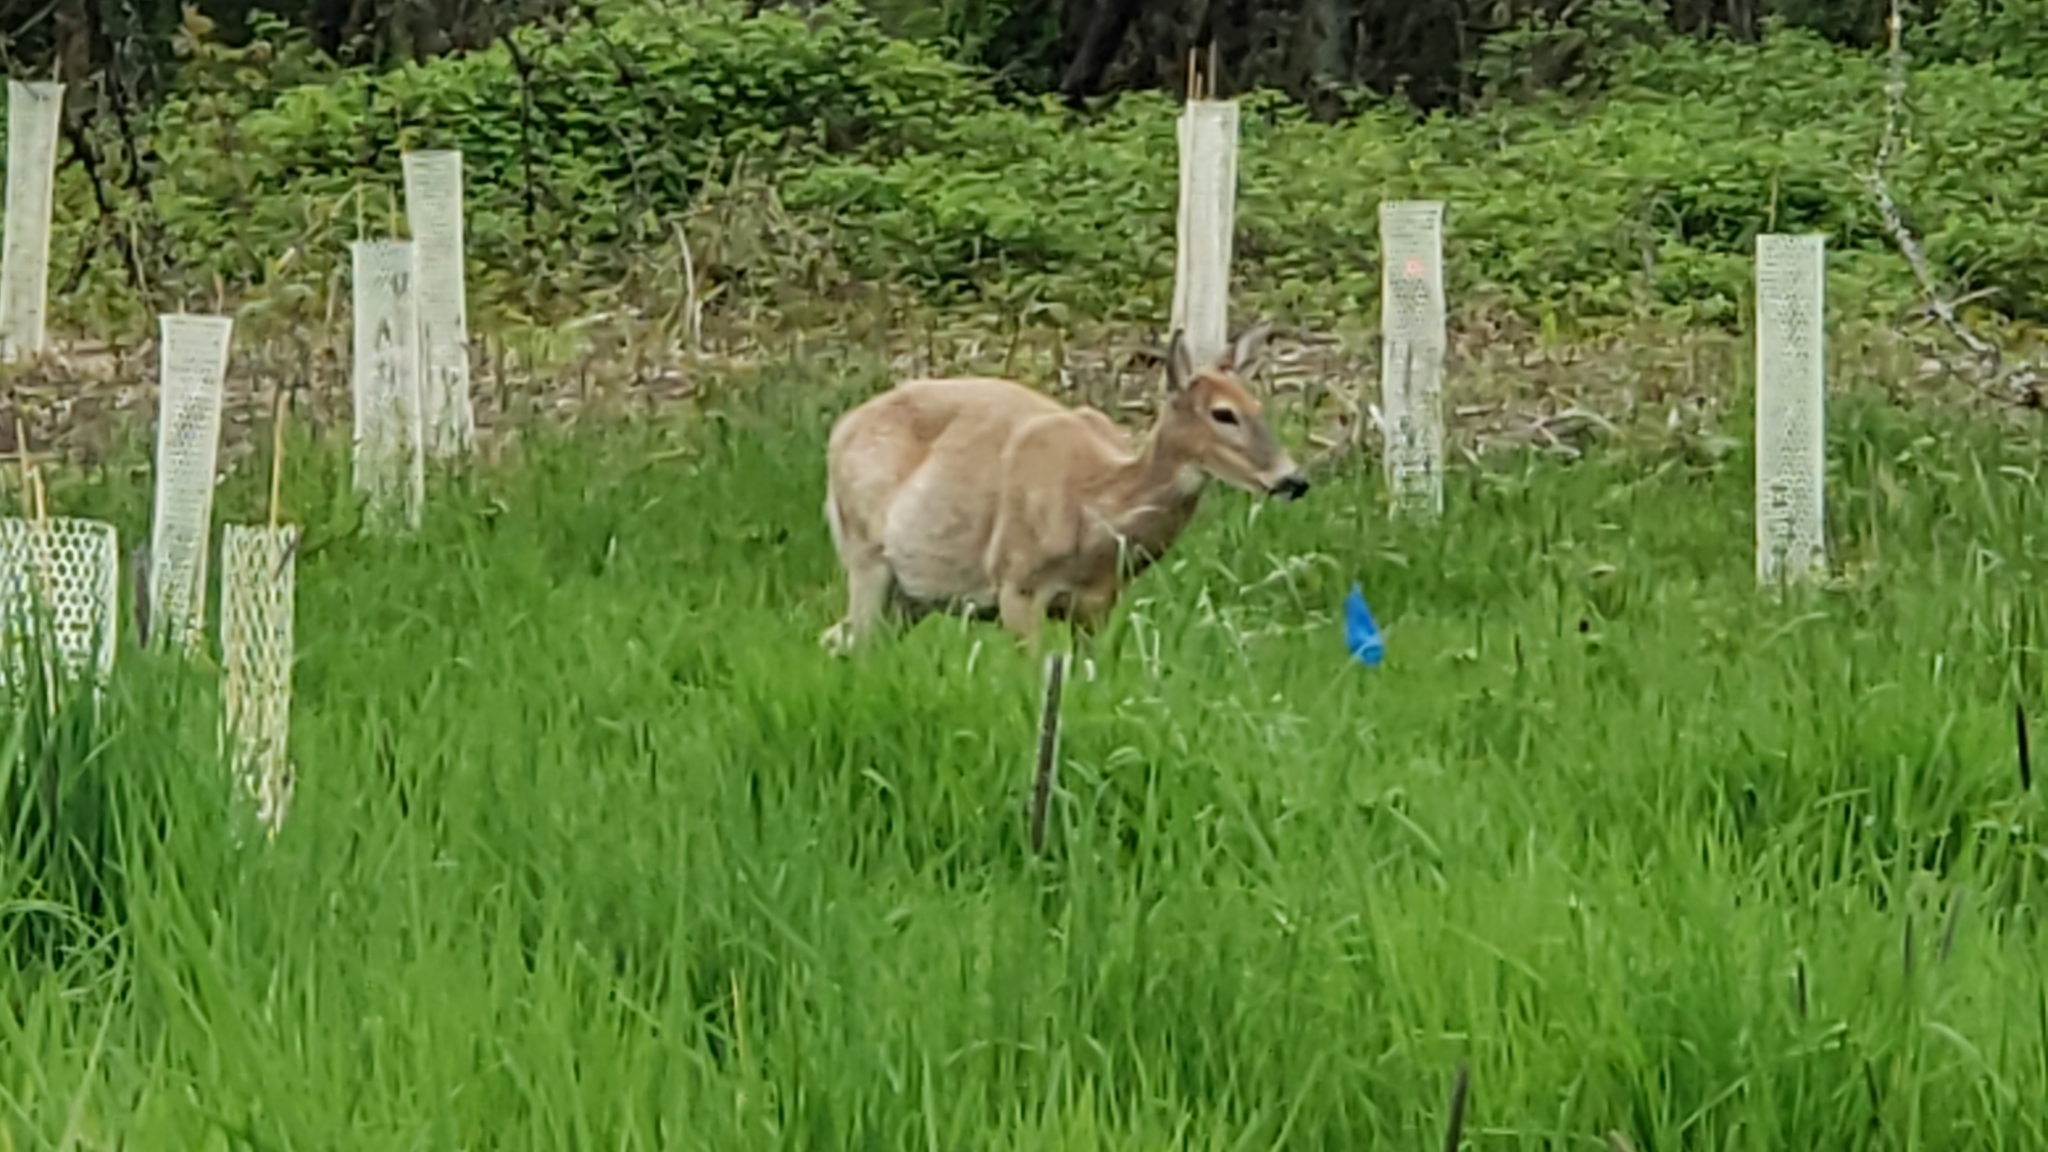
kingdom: Animalia
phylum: Chordata
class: Mammalia
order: Artiodactyla
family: Cervidae
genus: Odocoileus
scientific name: Odocoileus virginianus
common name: White-tailed deer
